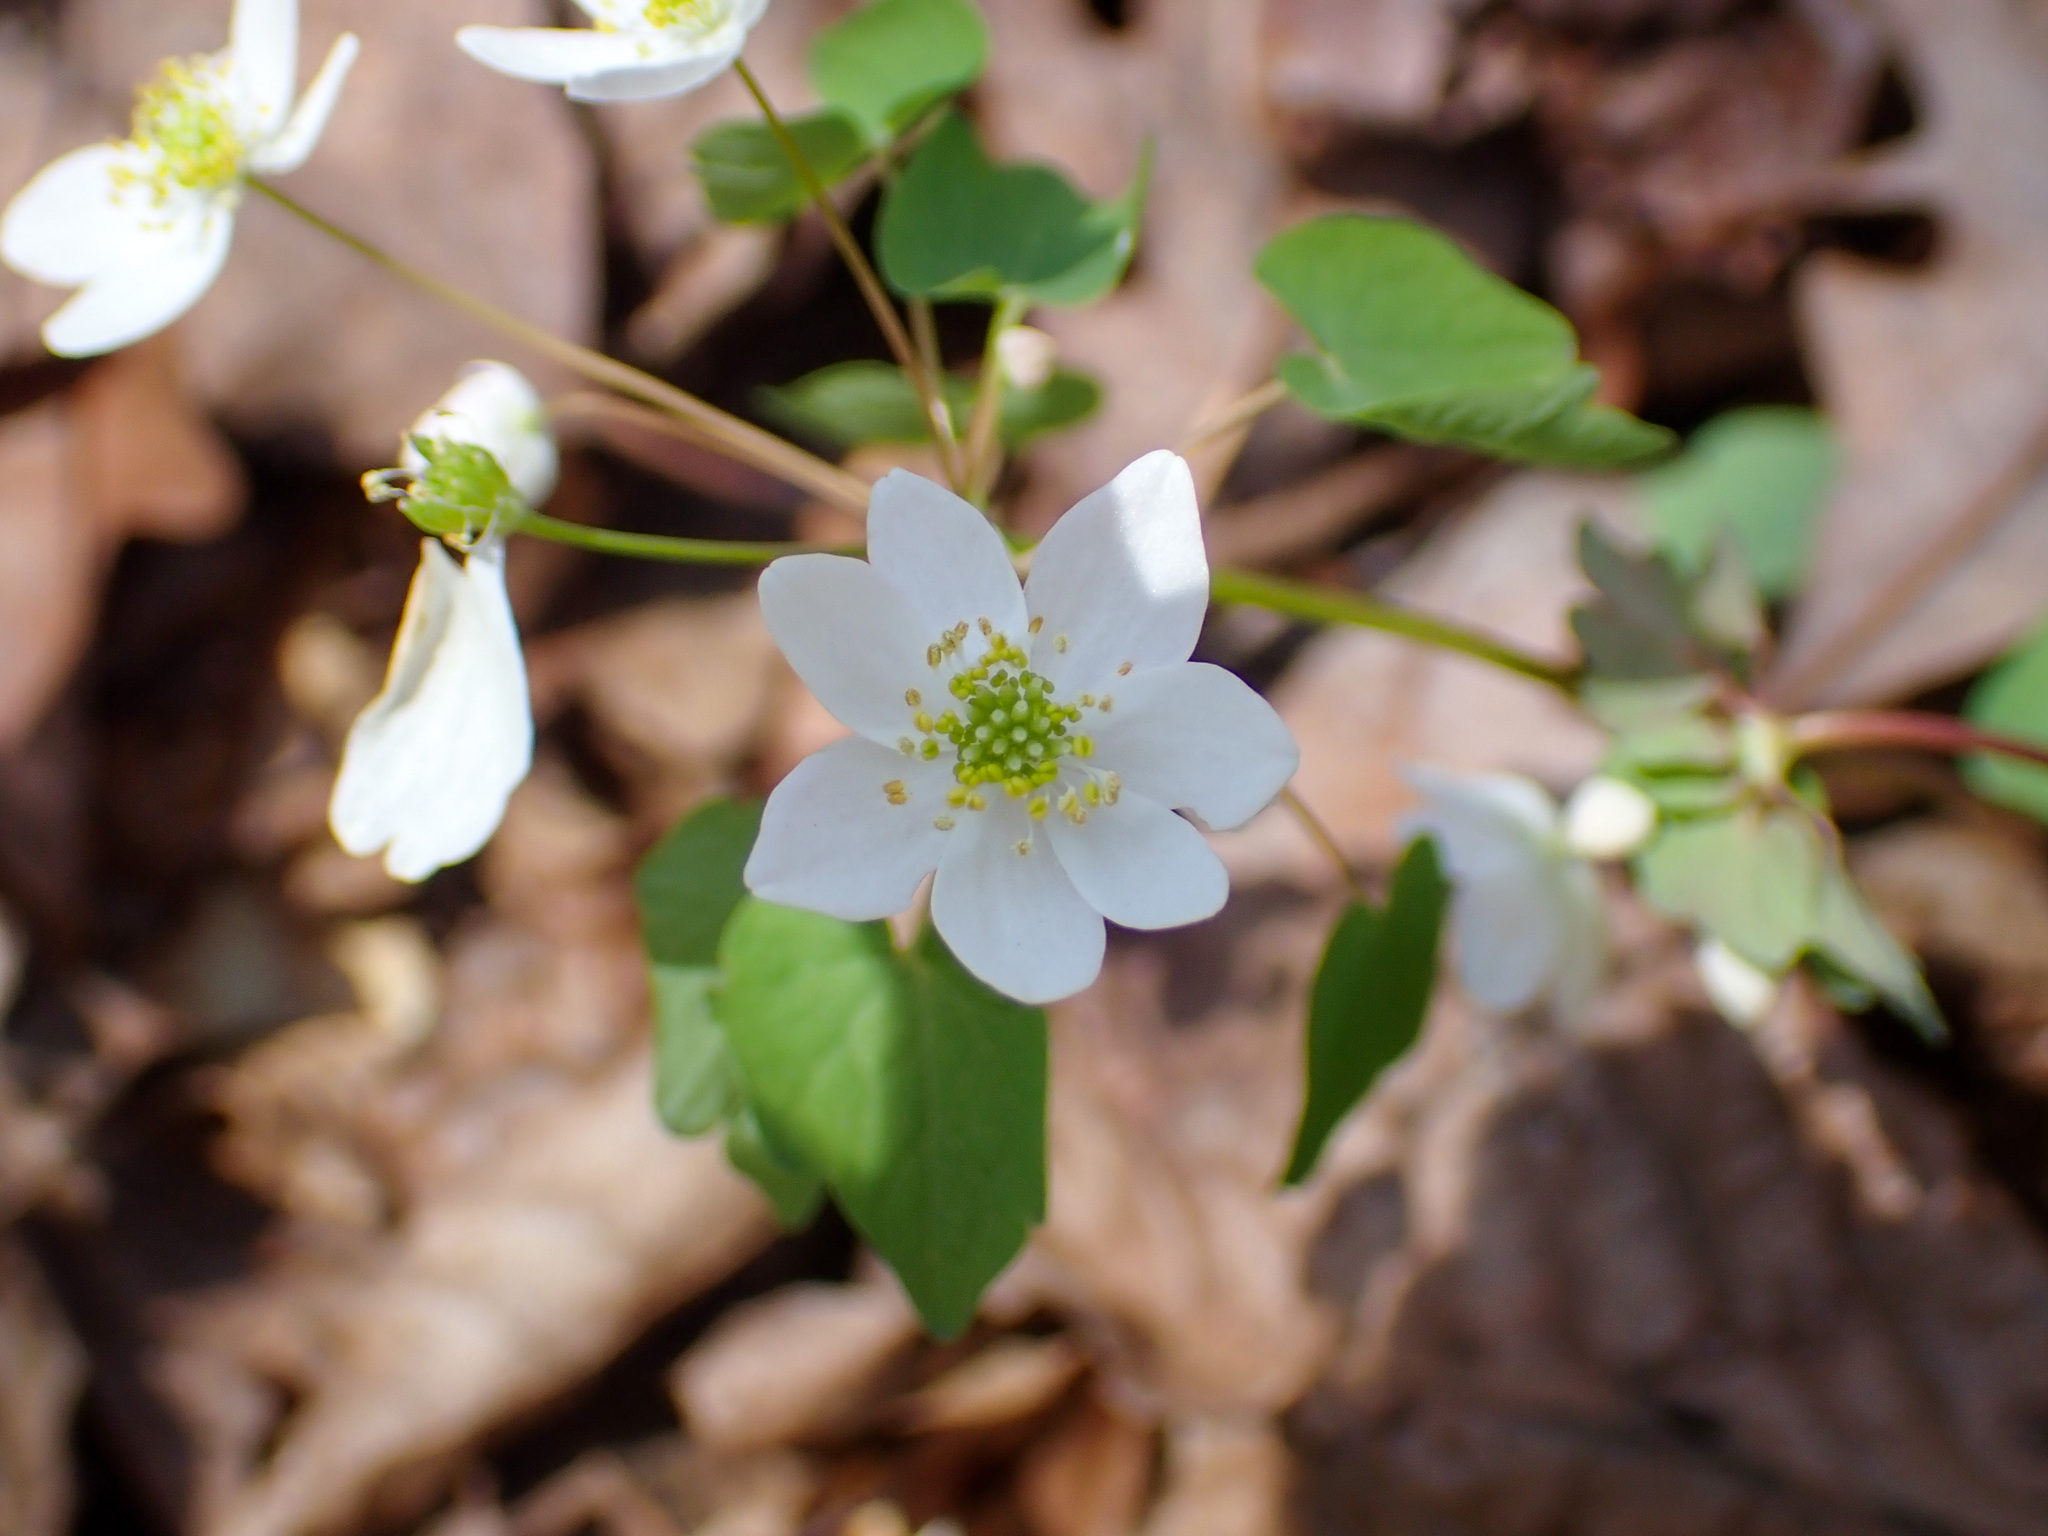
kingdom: Plantae
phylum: Tracheophyta
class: Magnoliopsida
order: Ranunculales
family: Ranunculaceae
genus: Thalictrum
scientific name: Thalictrum thalictroides
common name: Rue-anemone
